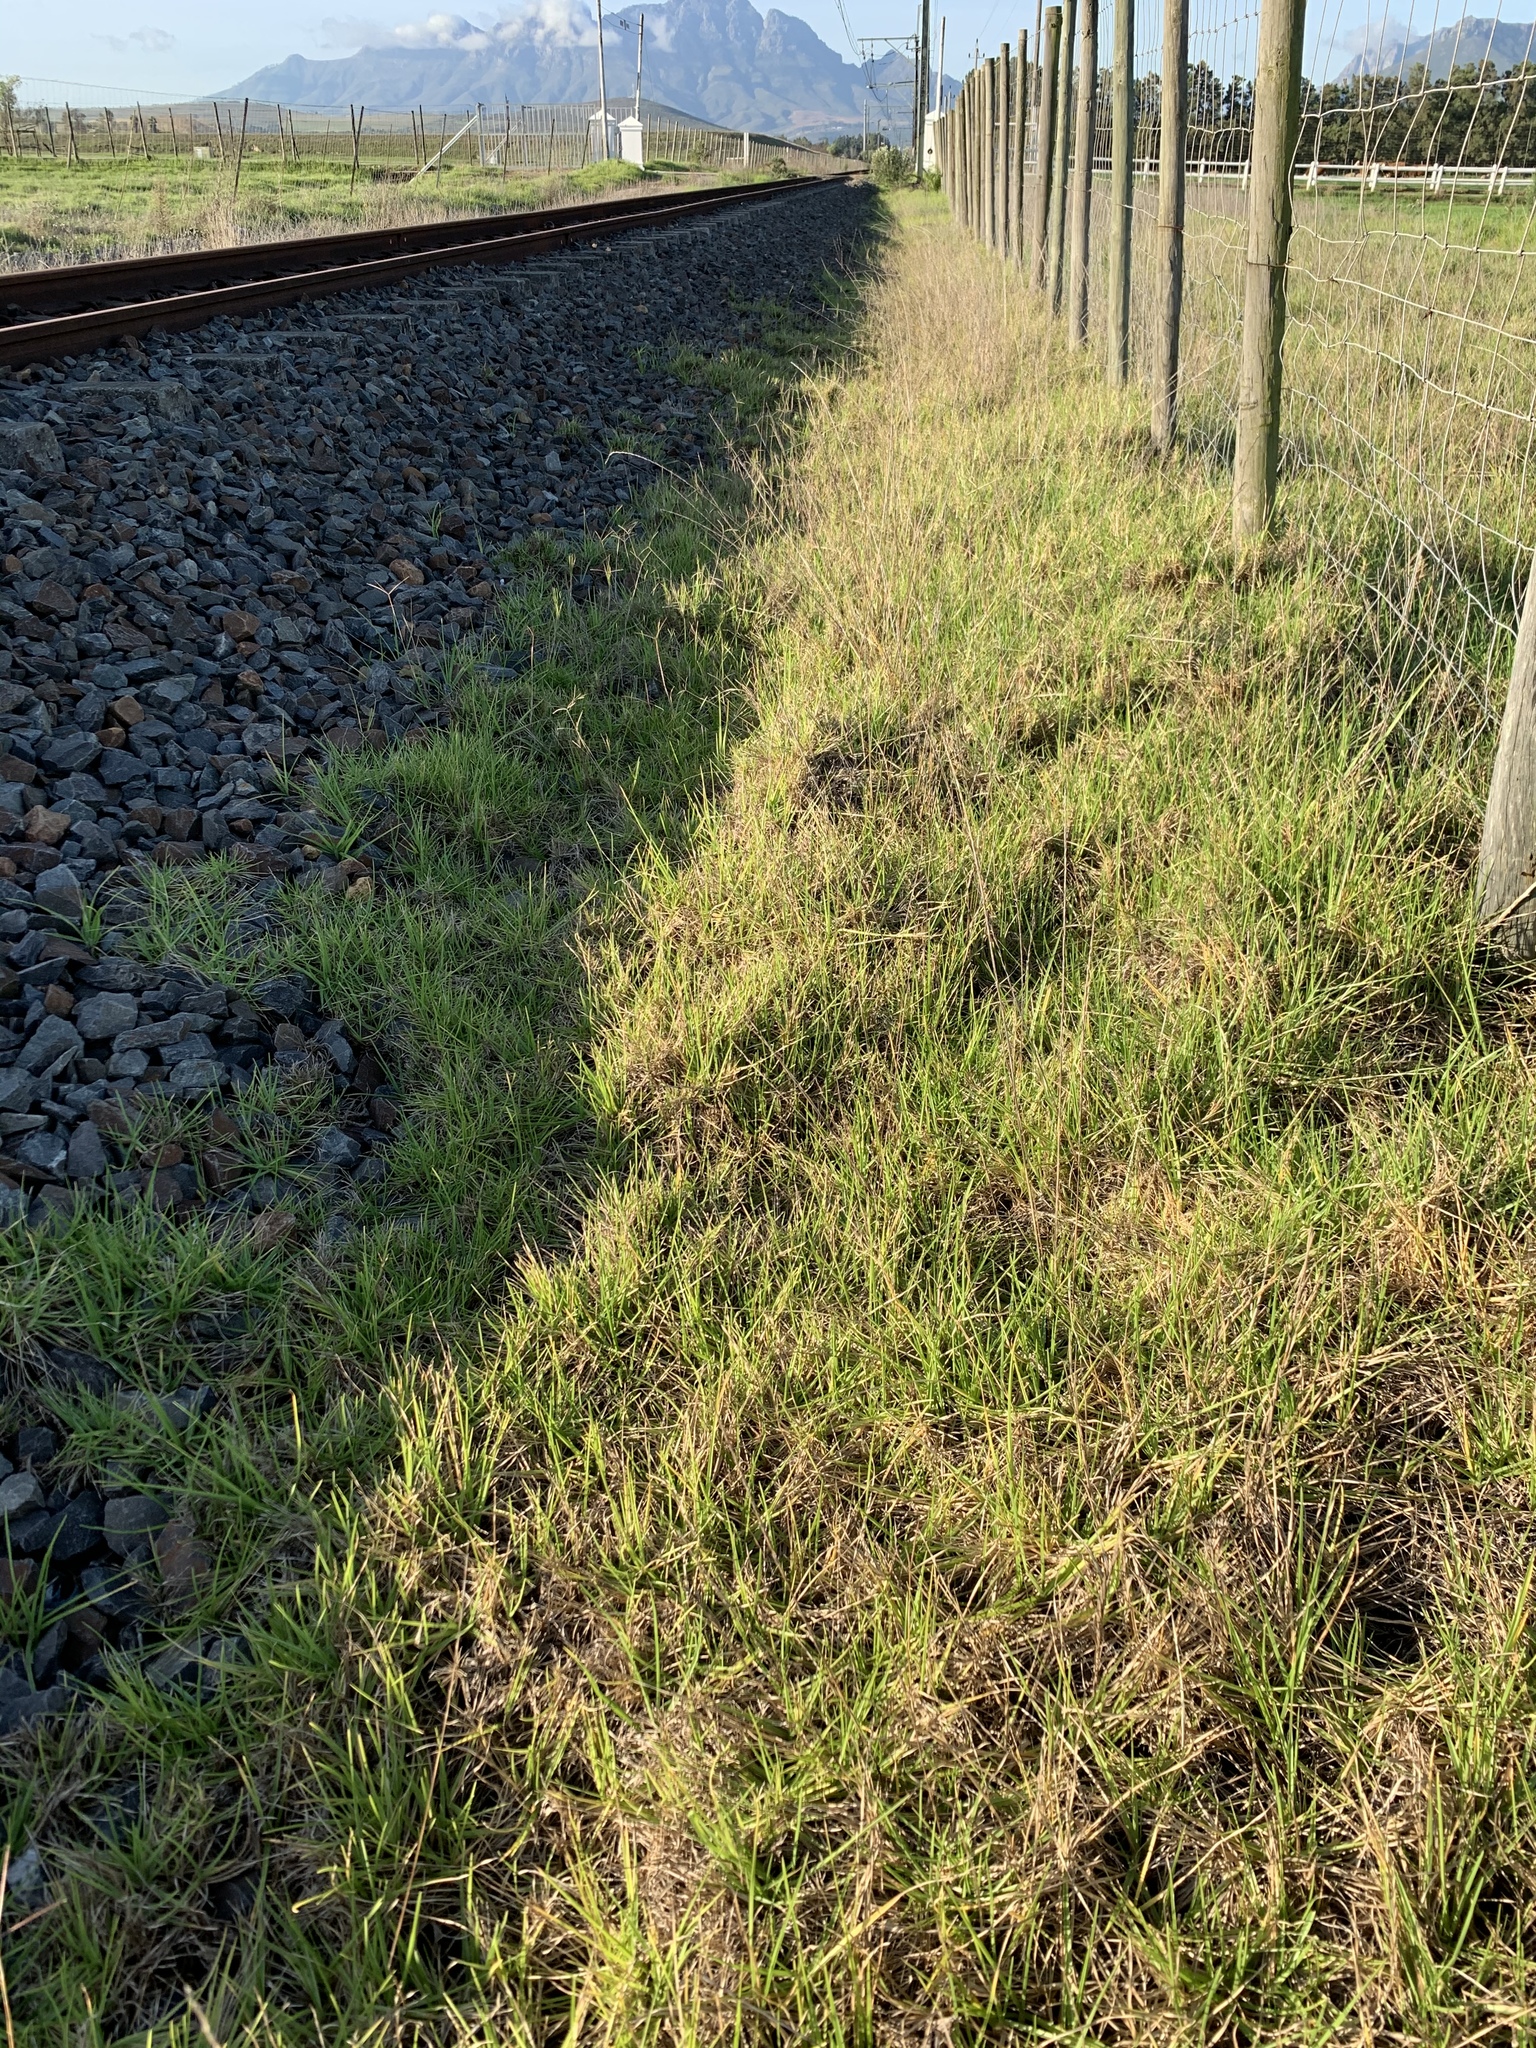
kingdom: Plantae
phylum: Tracheophyta
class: Liliopsida
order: Poales
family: Poaceae
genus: Cenchrus
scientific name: Cenchrus clandestinus
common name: Kikuyugrass
